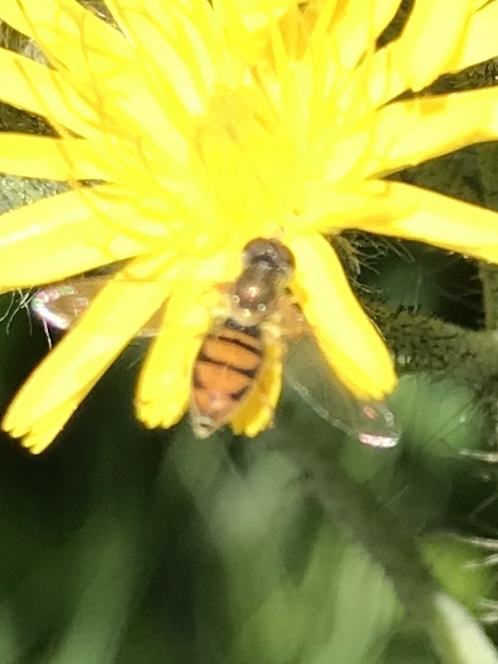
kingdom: Animalia
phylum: Arthropoda
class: Insecta
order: Diptera
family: Syrphidae
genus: Toxomerus
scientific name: Toxomerus marginatus
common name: Syrphid fly
